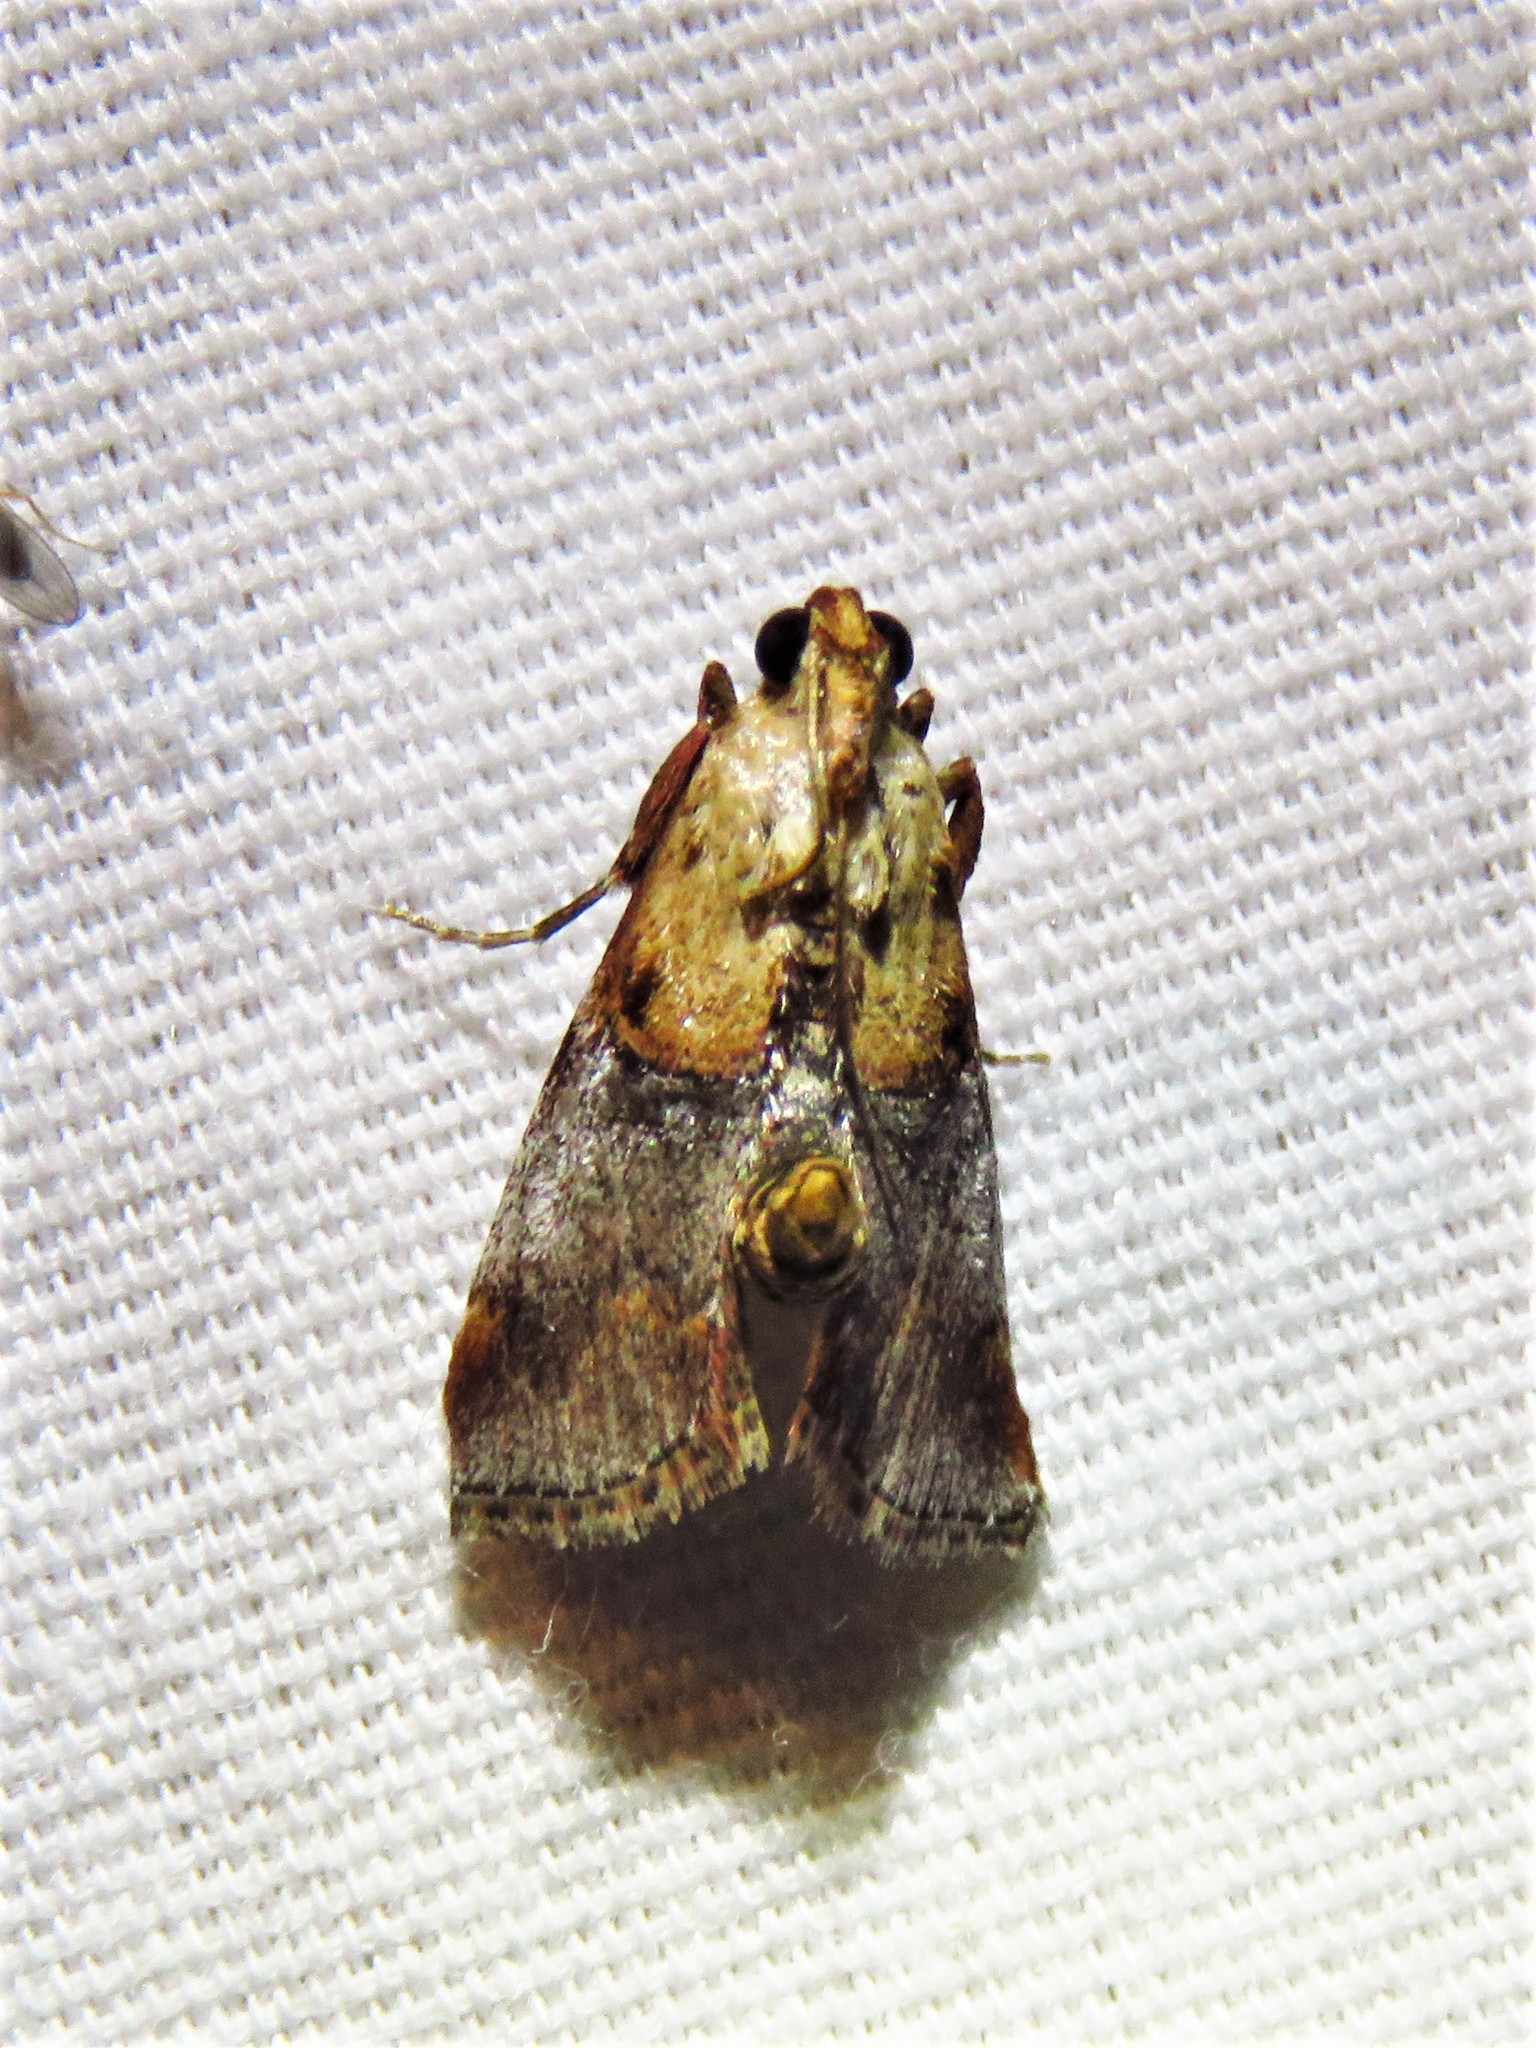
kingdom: Animalia
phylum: Arthropoda
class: Insecta
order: Lepidoptera
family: Pyralidae
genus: Cacozelia
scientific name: Cacozelia basiochrealis
